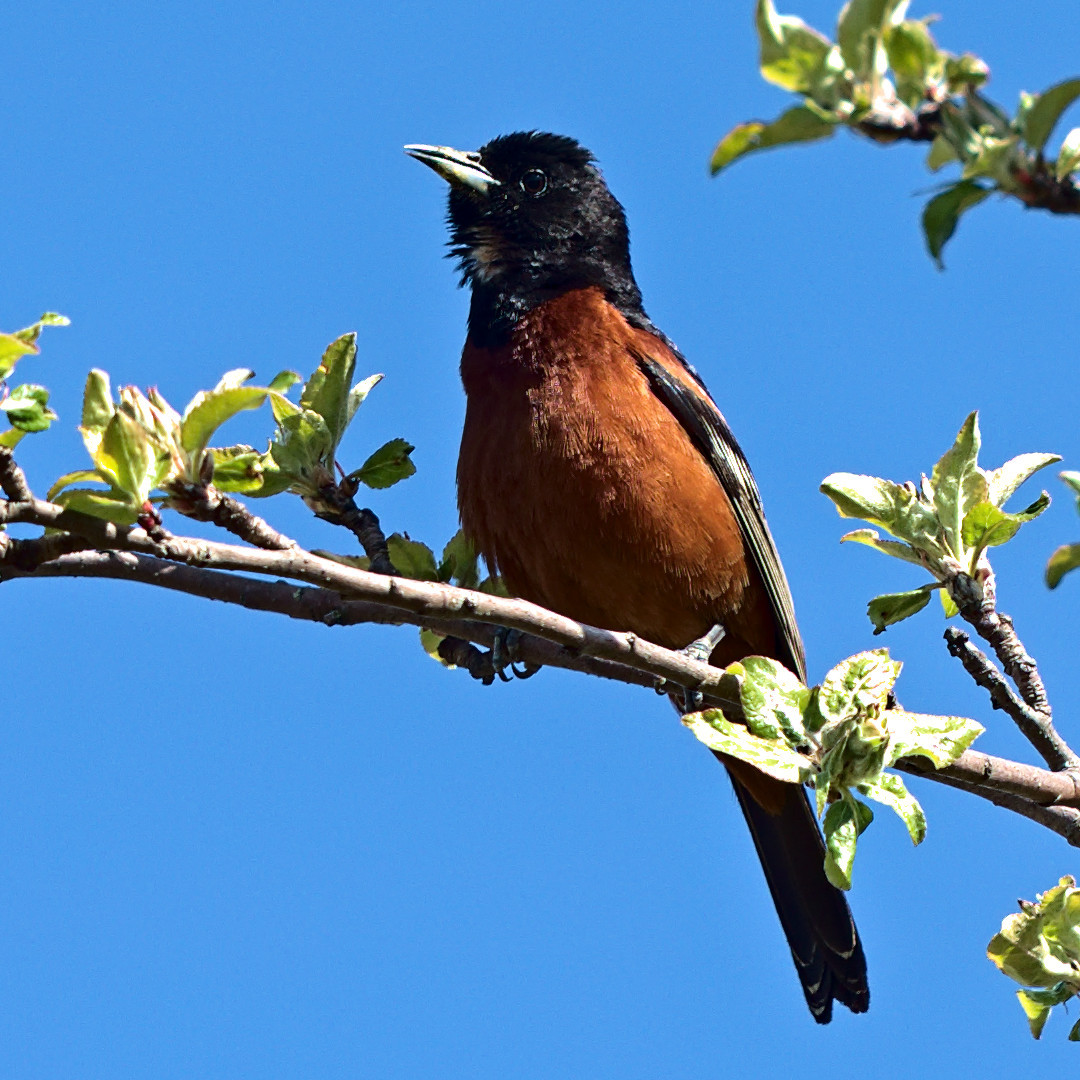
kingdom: Animalia
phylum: Chordata
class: Aves
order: Passeriformes
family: Icteridae
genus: Icterus
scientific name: Icterus spurius
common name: Orchard oriole
